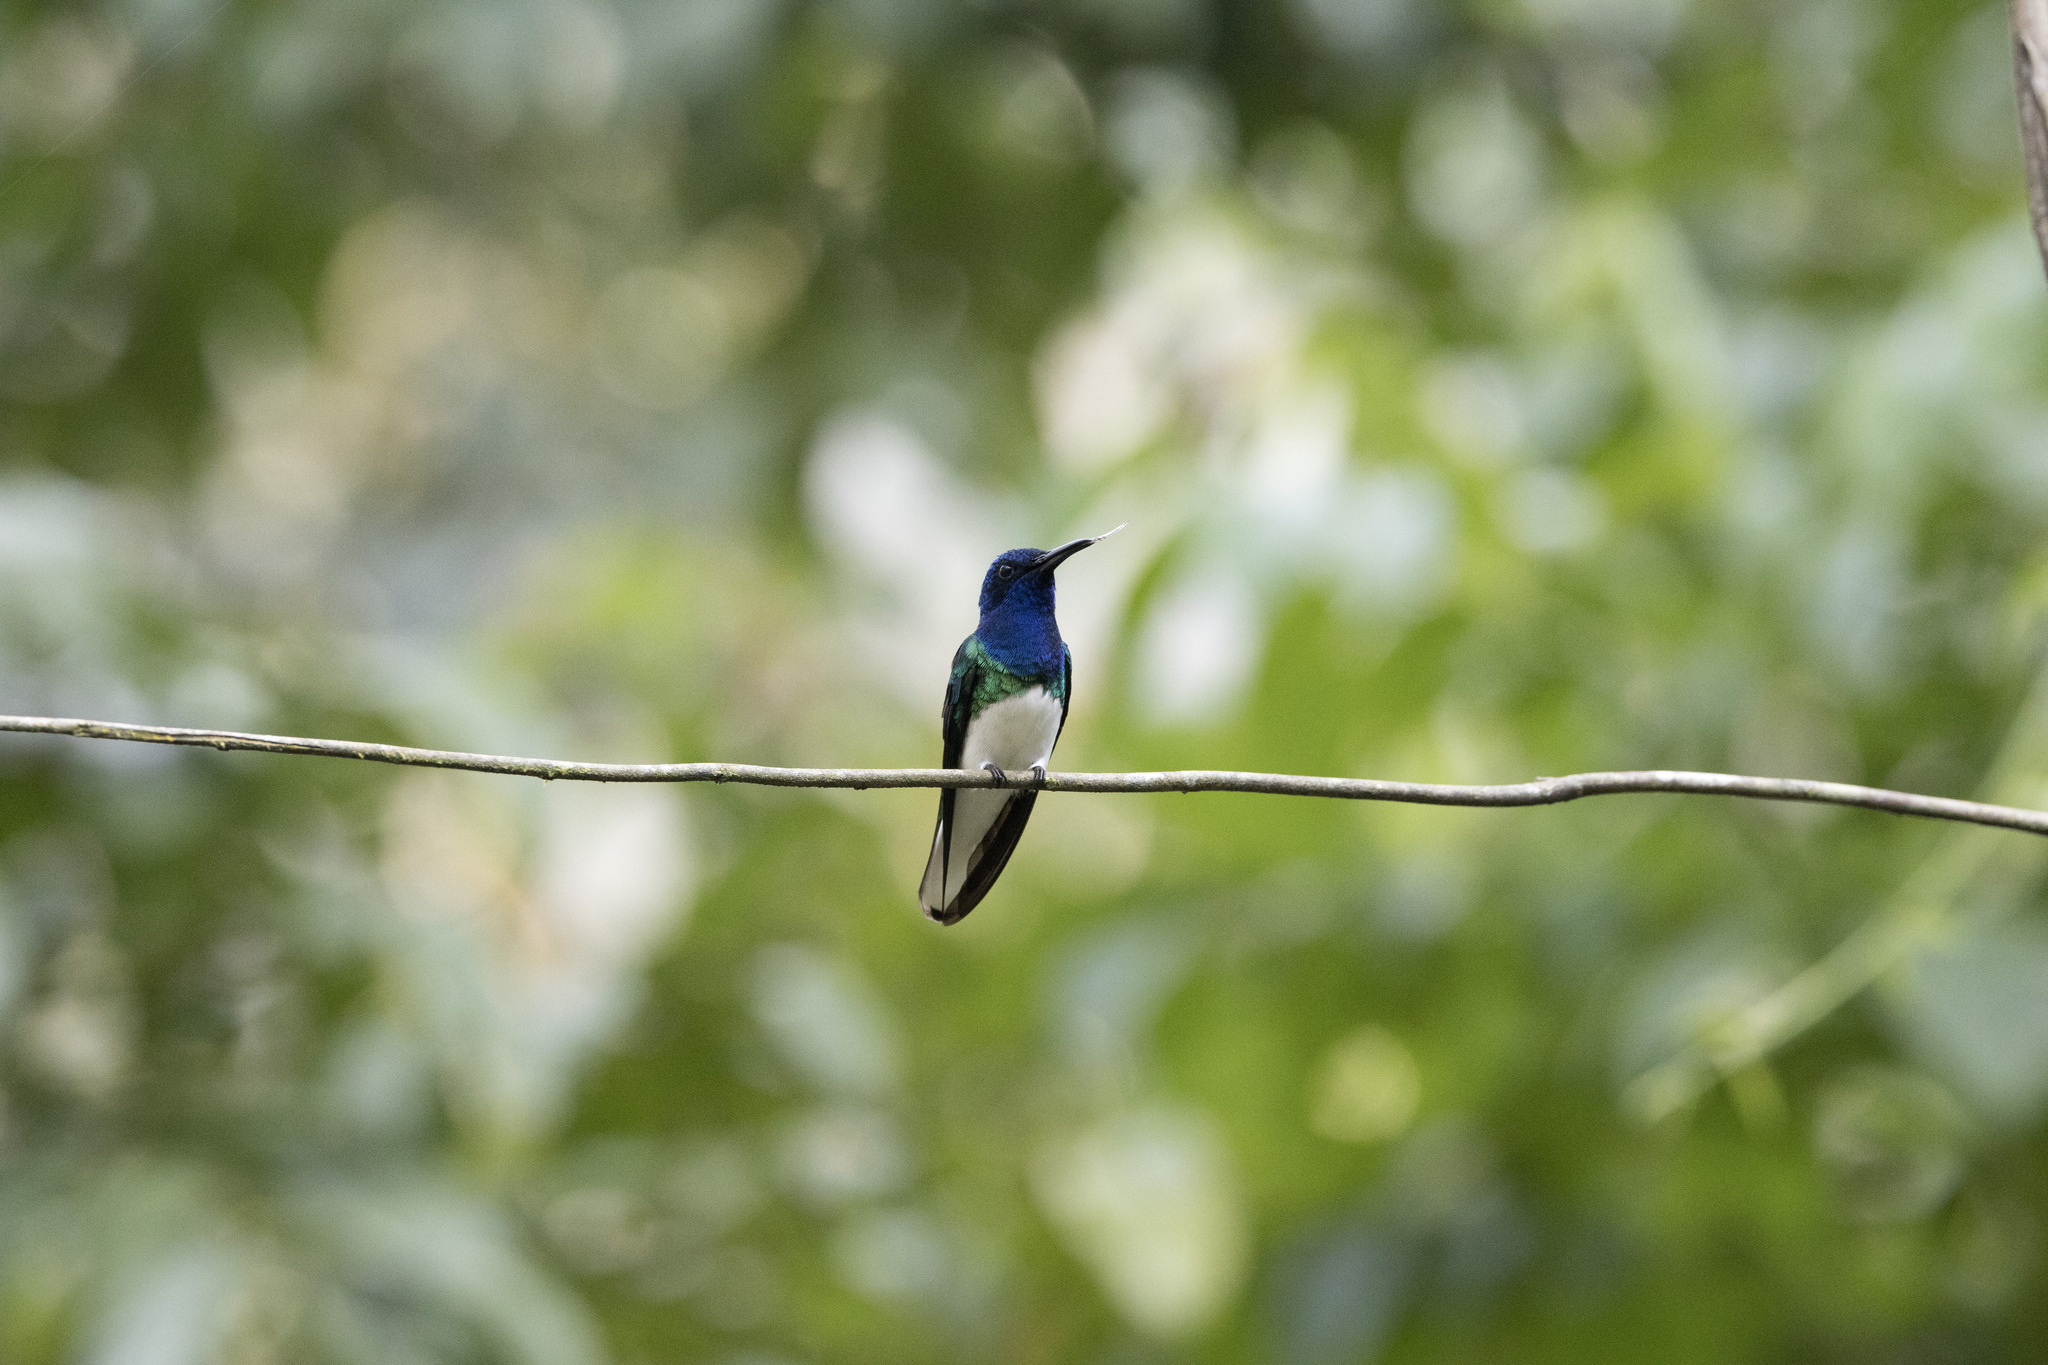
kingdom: Animalia
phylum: Chordata
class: Aves
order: Apodiformes
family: Trochilidae
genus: Florisuga
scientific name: Florisuga mellivora
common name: White-necked jacobin
